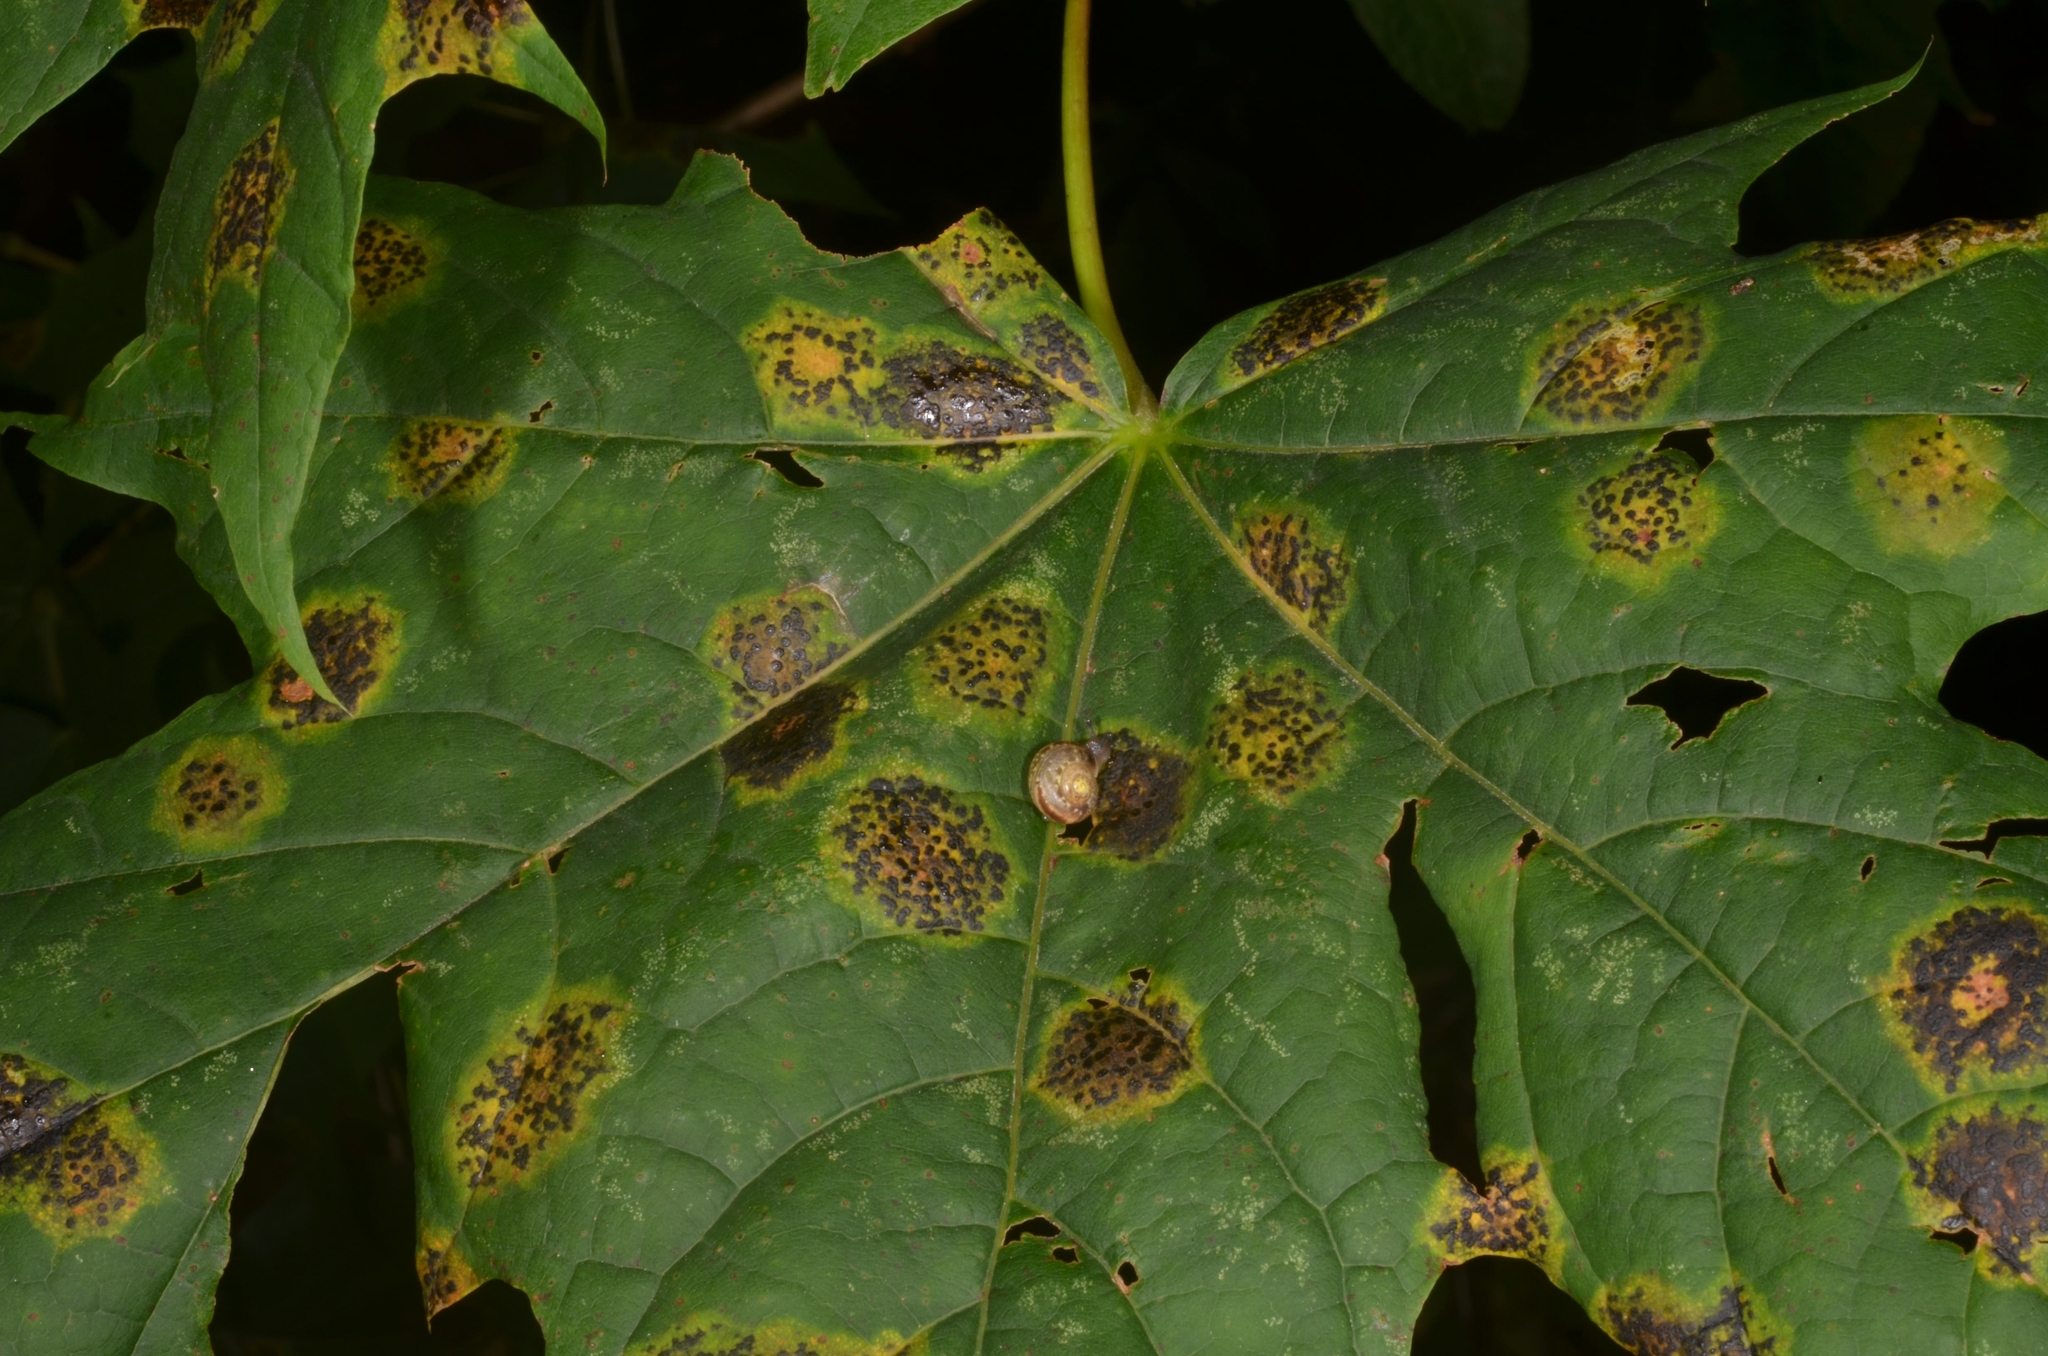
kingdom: Fungi
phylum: Ascomycota
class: Leotiomycetes
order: Rhytismatales
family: Rhytismataceae
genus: Rhytisma
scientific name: Rhytisma acerinum
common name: European tar spot
